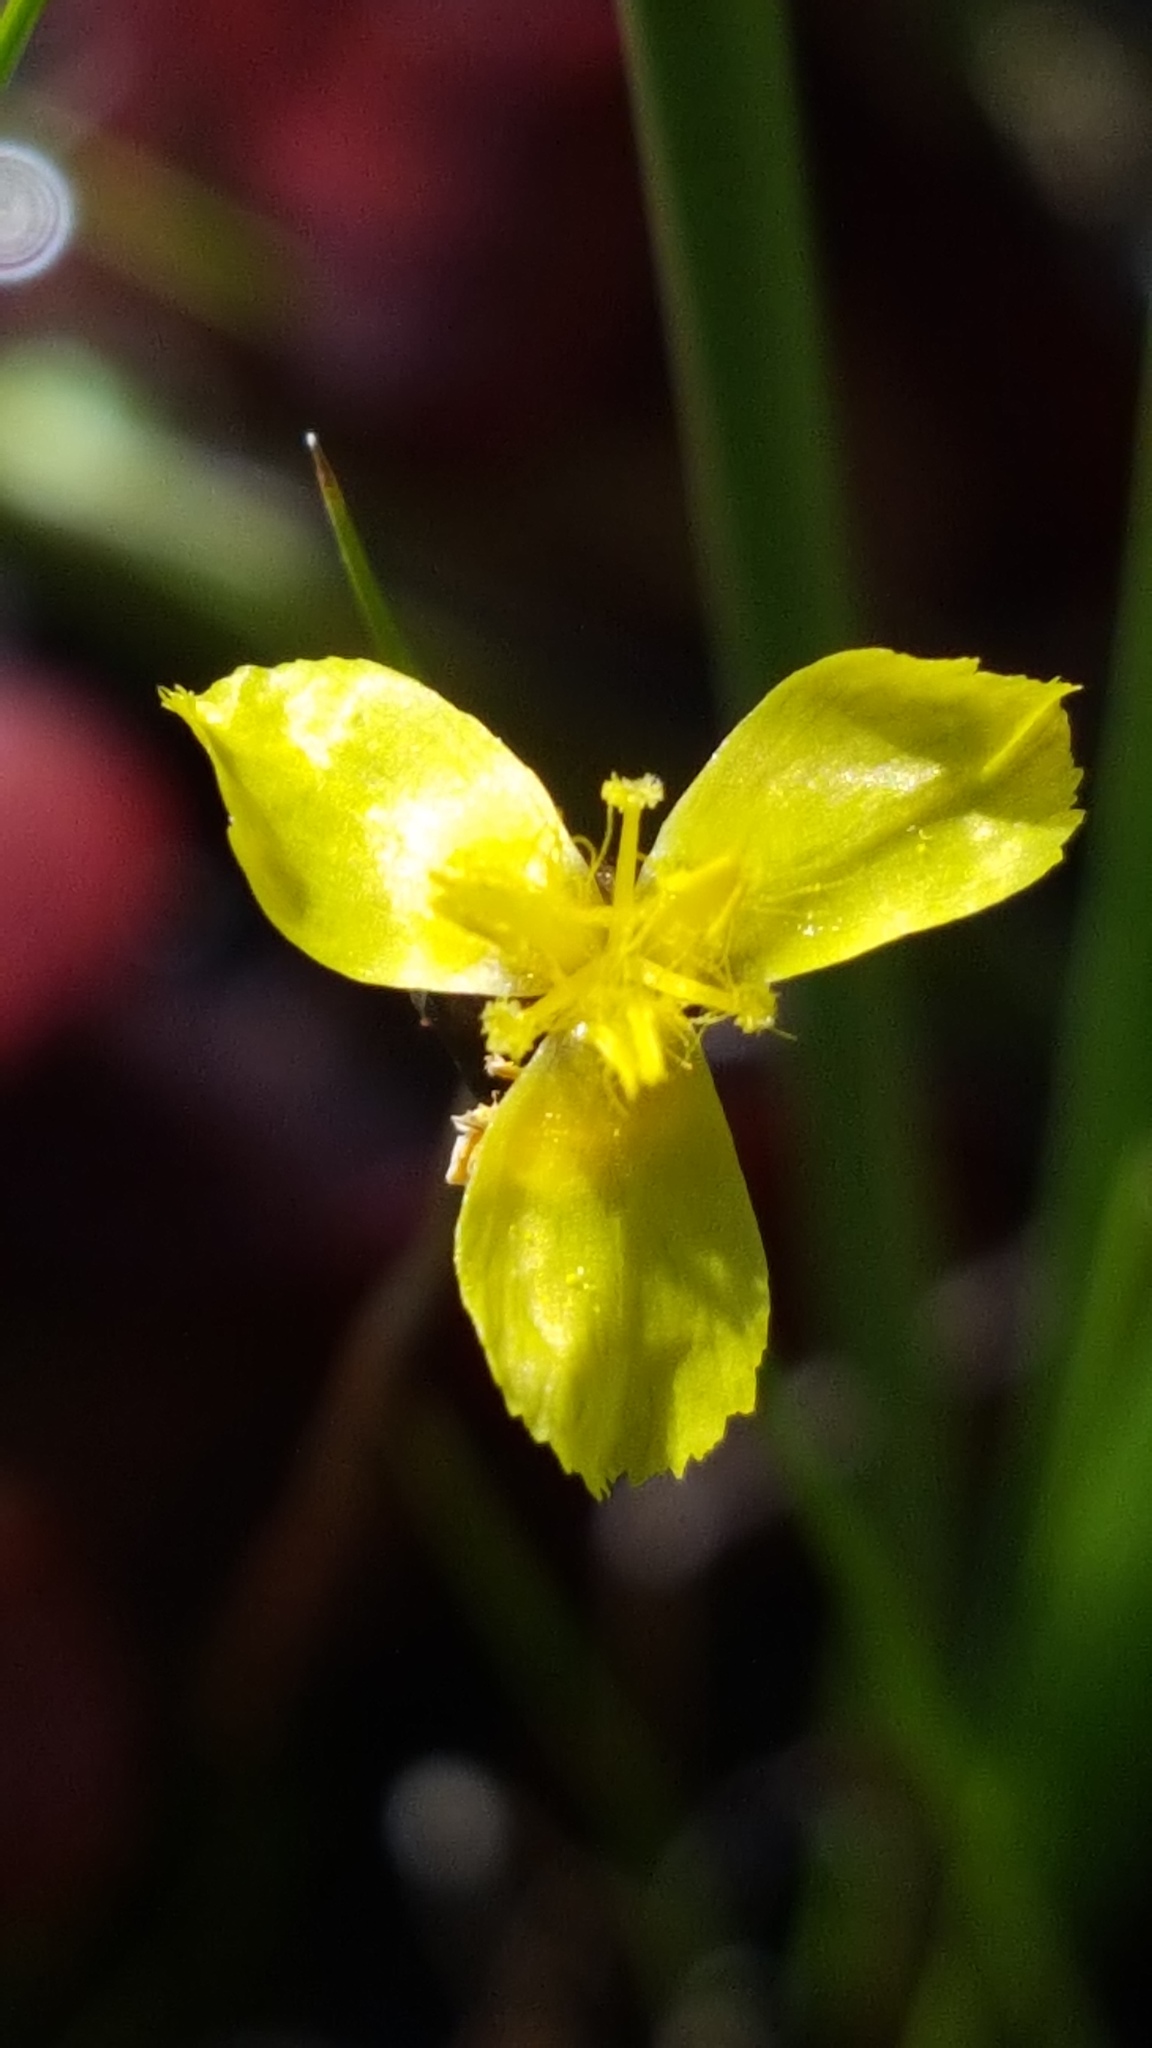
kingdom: Plantae
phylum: Tracheophyta
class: Liliopsida
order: Poales
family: Xyridaceae
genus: Xyris
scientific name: Xyris montana
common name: Northern yellow-eyed-grass
